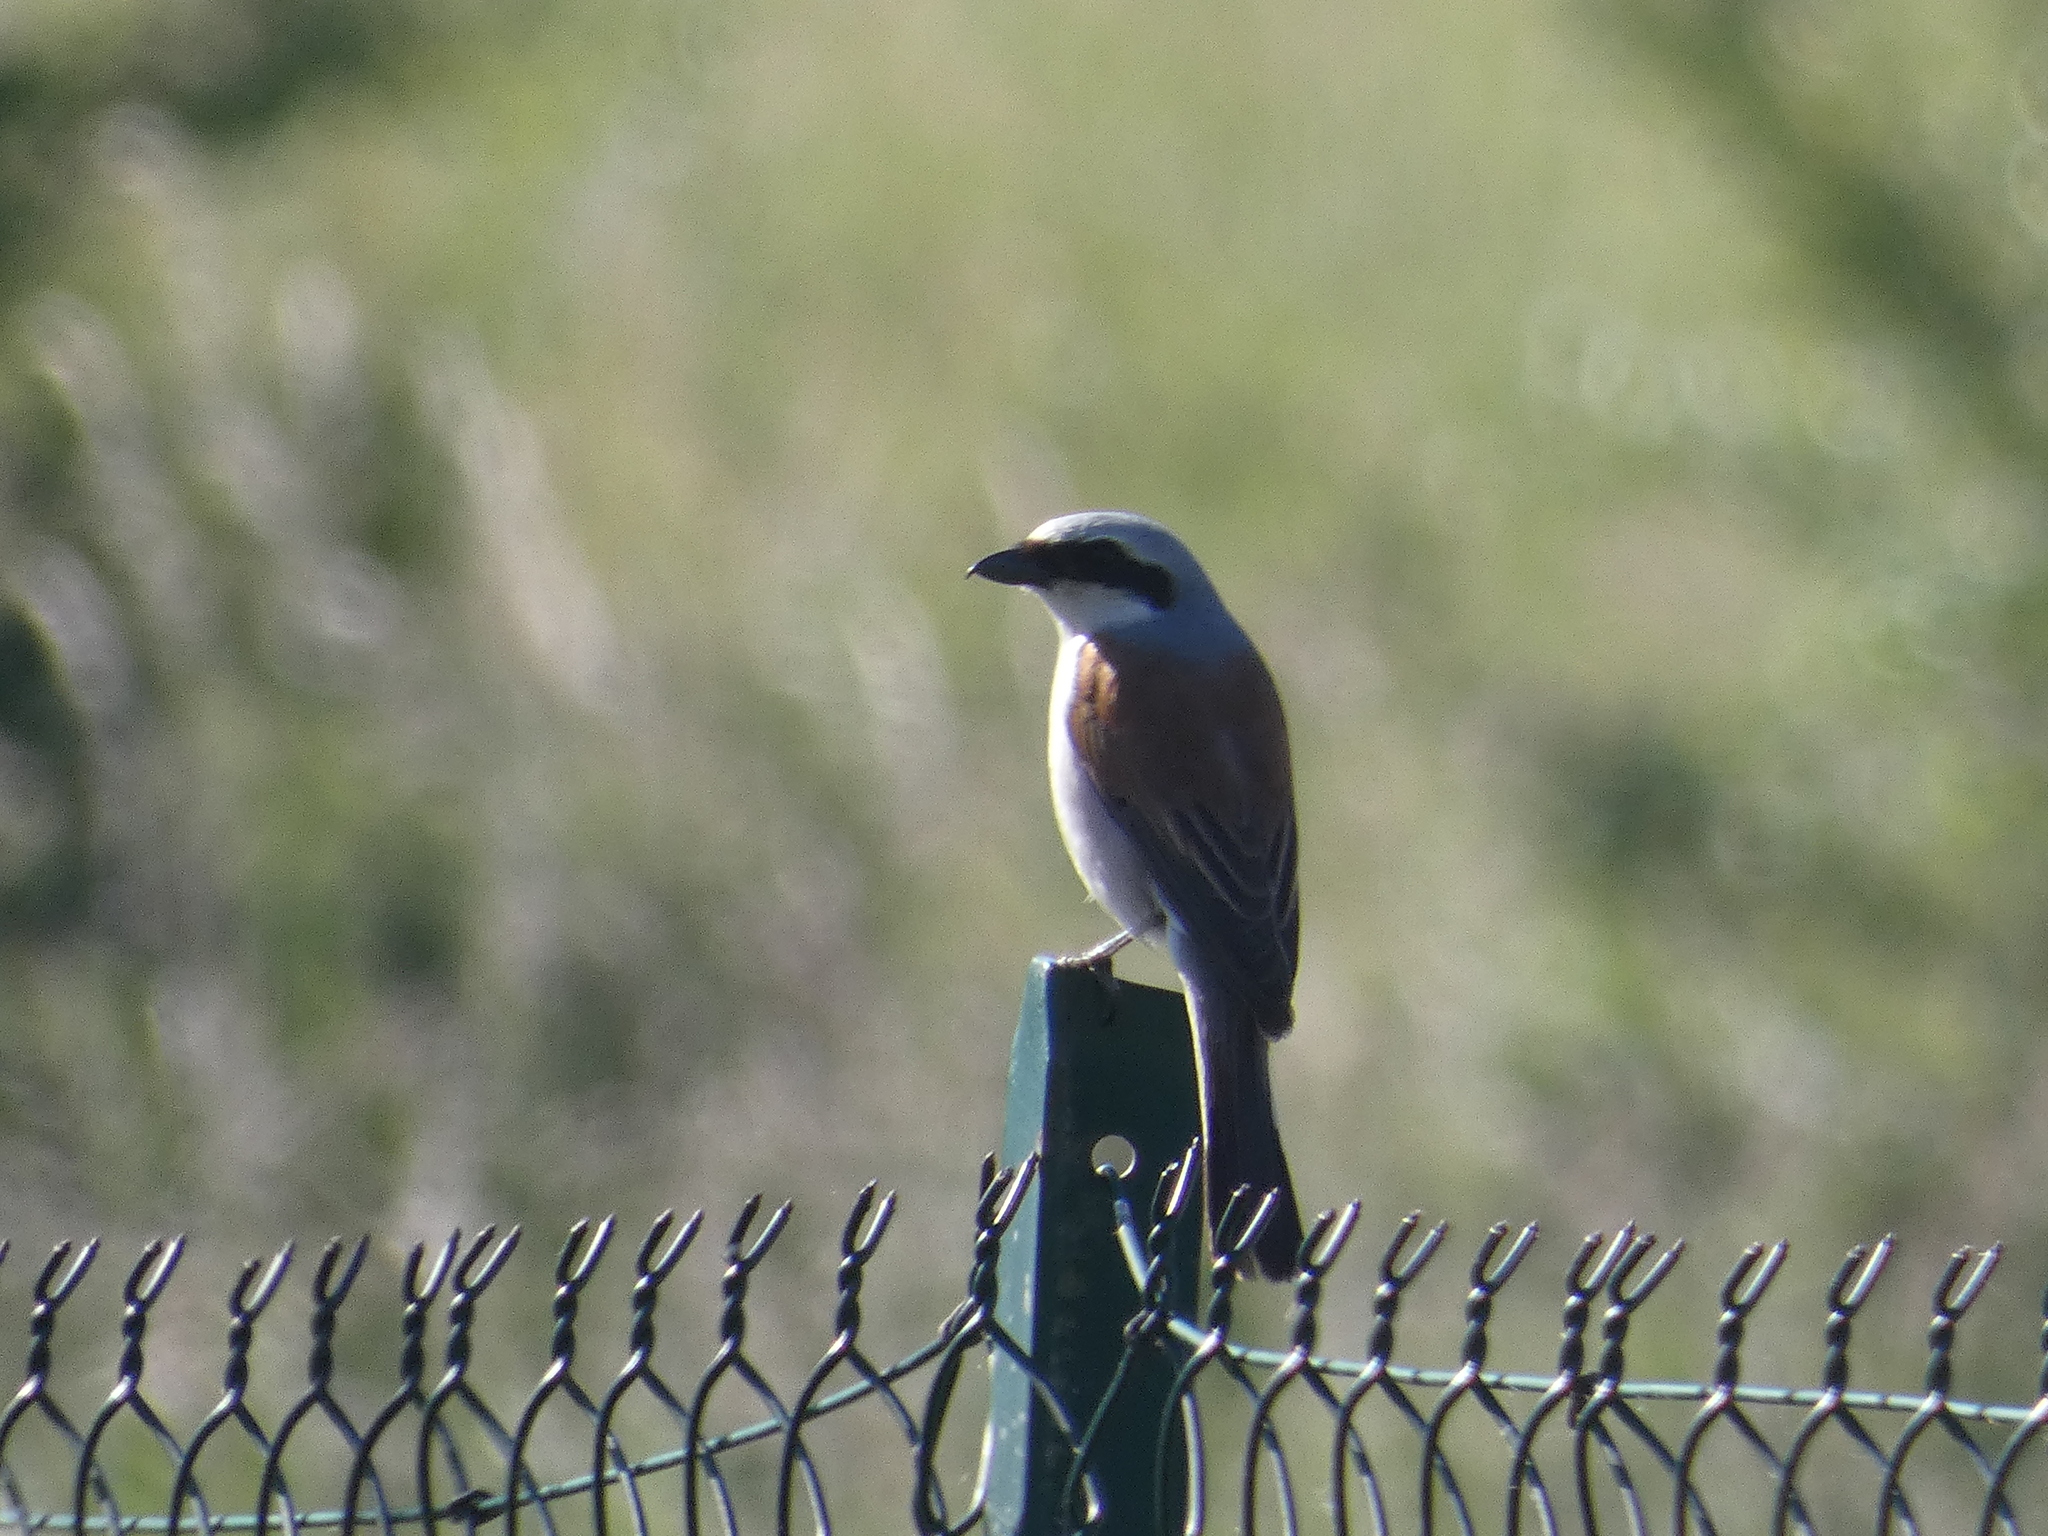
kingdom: Animalia
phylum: Chordata
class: Aves
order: Passeriformes
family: Laniidae
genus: Lanius
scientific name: Lanius collurio
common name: Red-backed shrike
